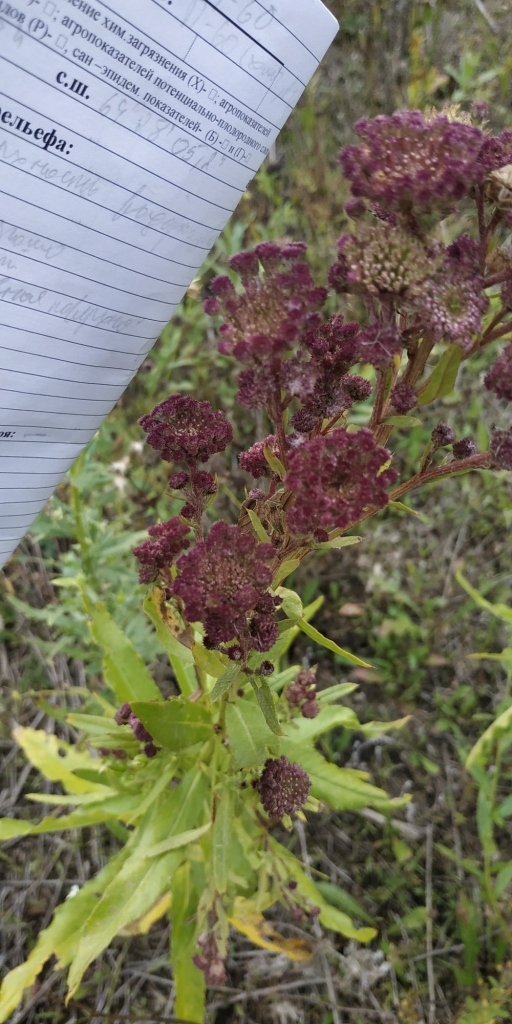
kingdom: Plantae
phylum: Tracheophyta
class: Magnoliopsida
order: Asterales
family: Asteraceae
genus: Cirsium
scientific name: Cirsium arvense
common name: Creeping thistle
